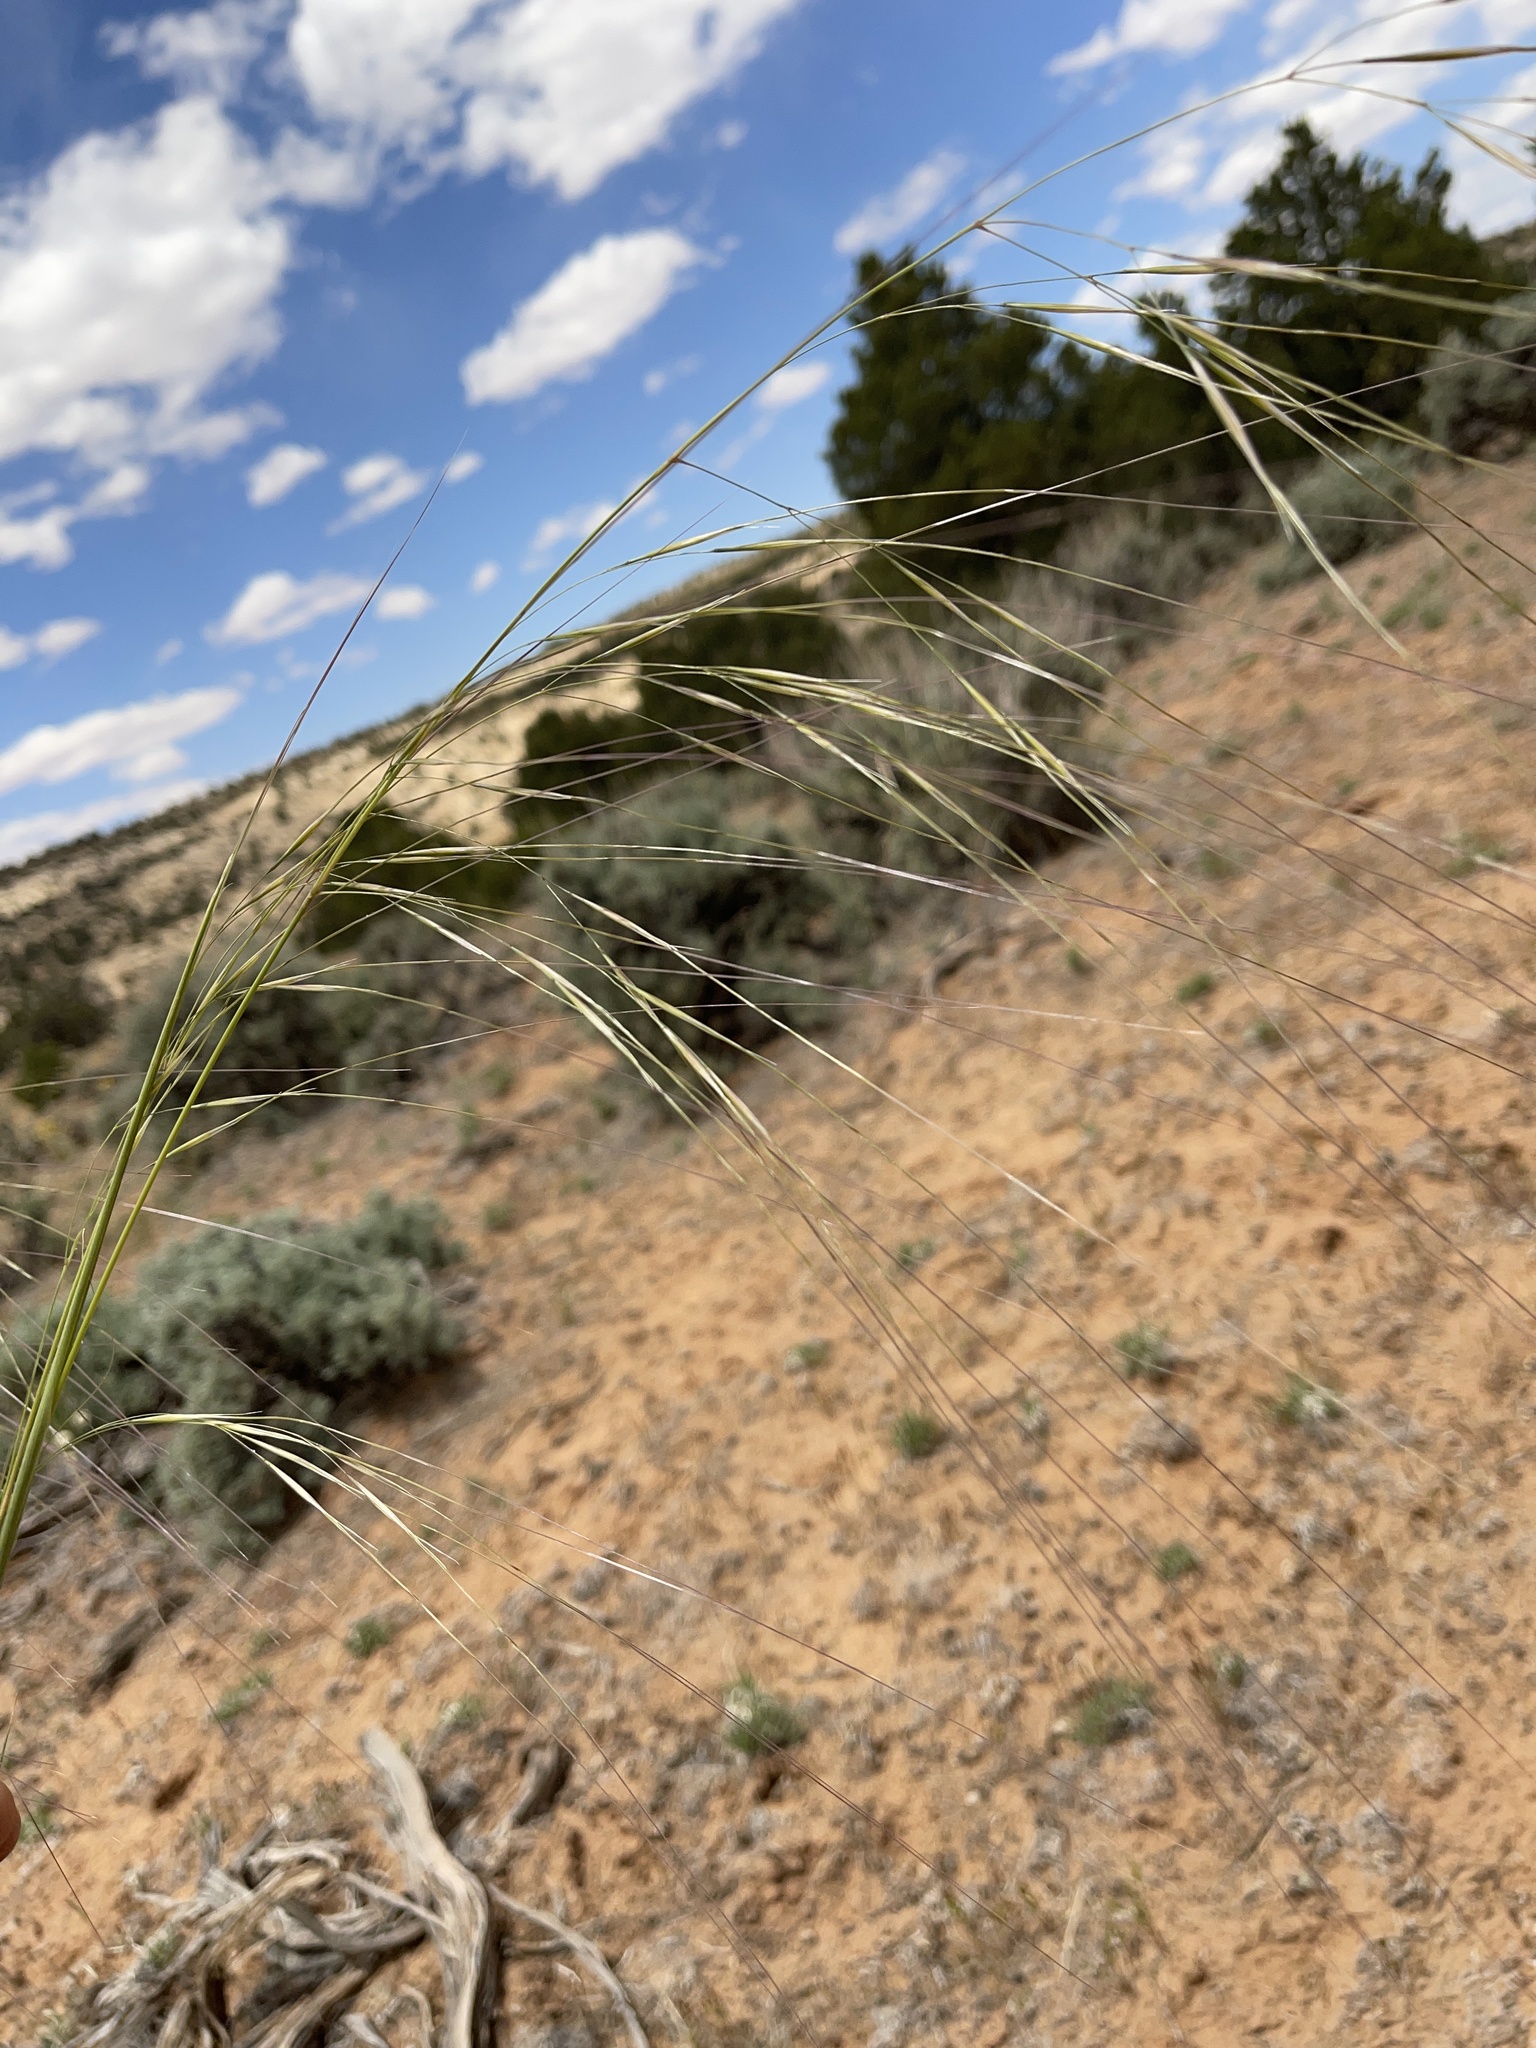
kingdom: Plantae
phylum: Tracheophyta
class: Liliopsida
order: Poales
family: Poaceae
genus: Hesperostipa
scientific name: Hesperostipa comata
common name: Needle-and-thread grass
